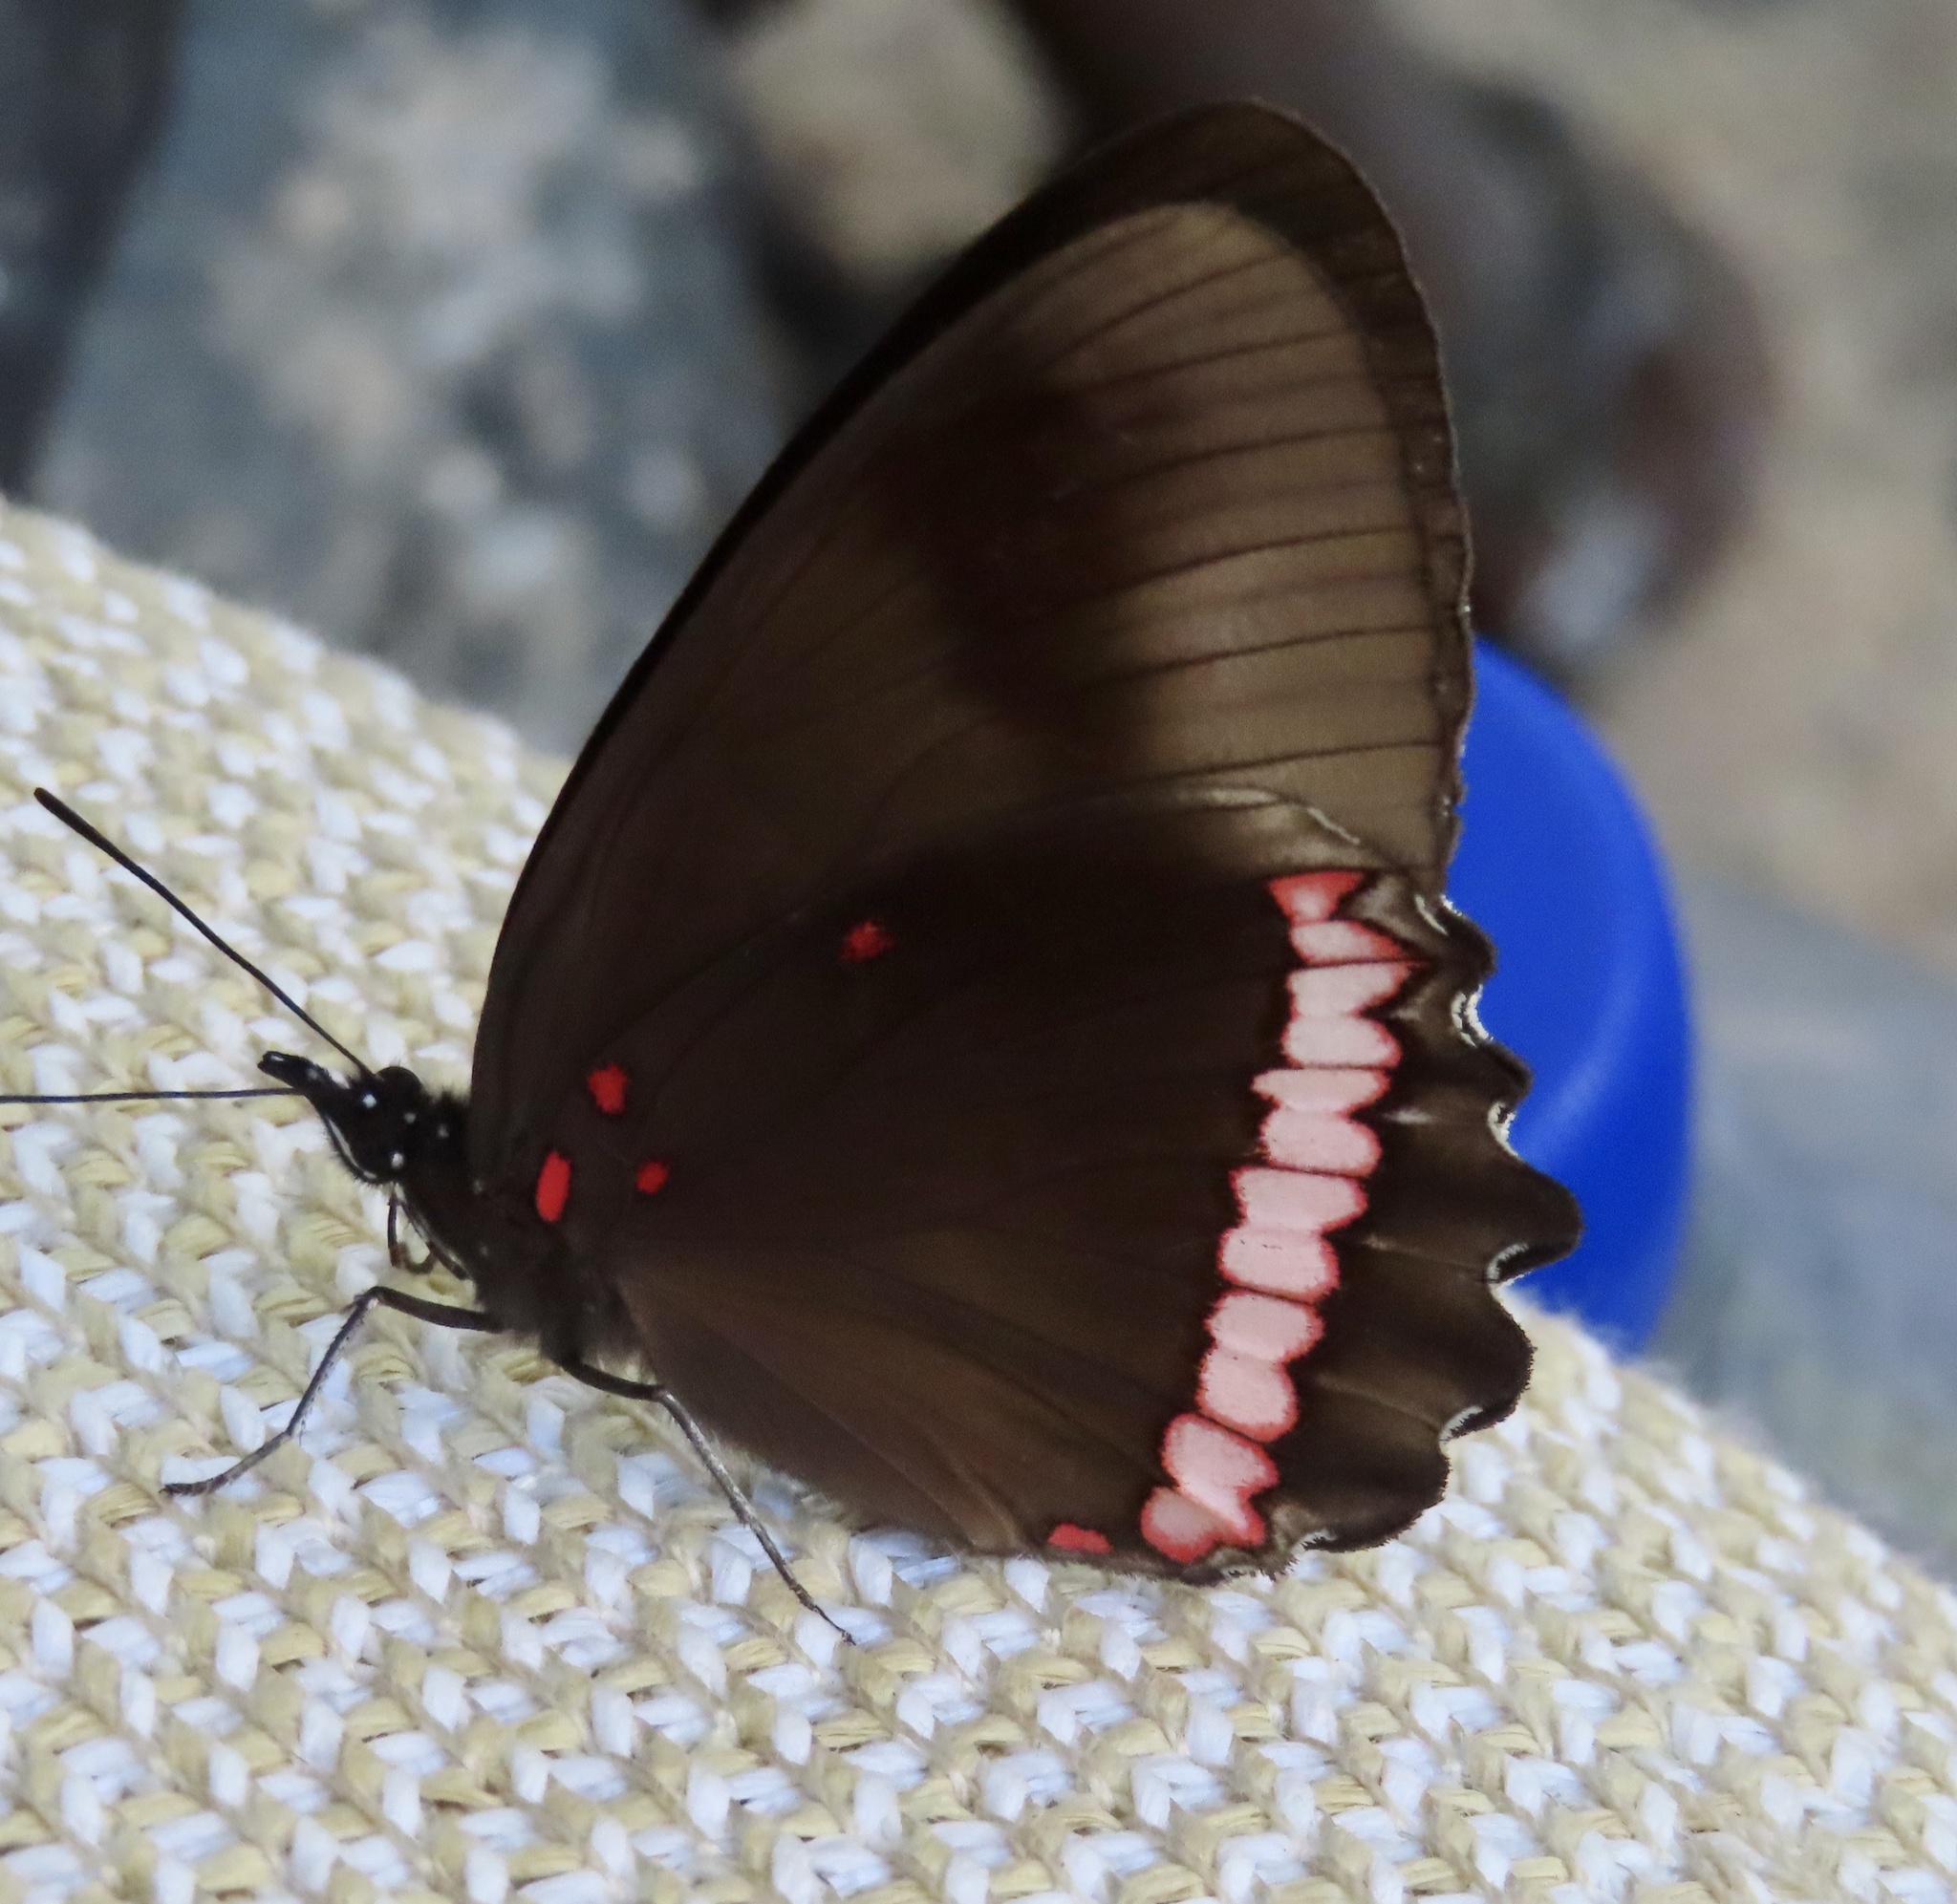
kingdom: Animalia
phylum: Arthropoda
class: Insecta
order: Lepidoptera
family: Nymphalidae
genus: Biblis
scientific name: Biblis aganisa
